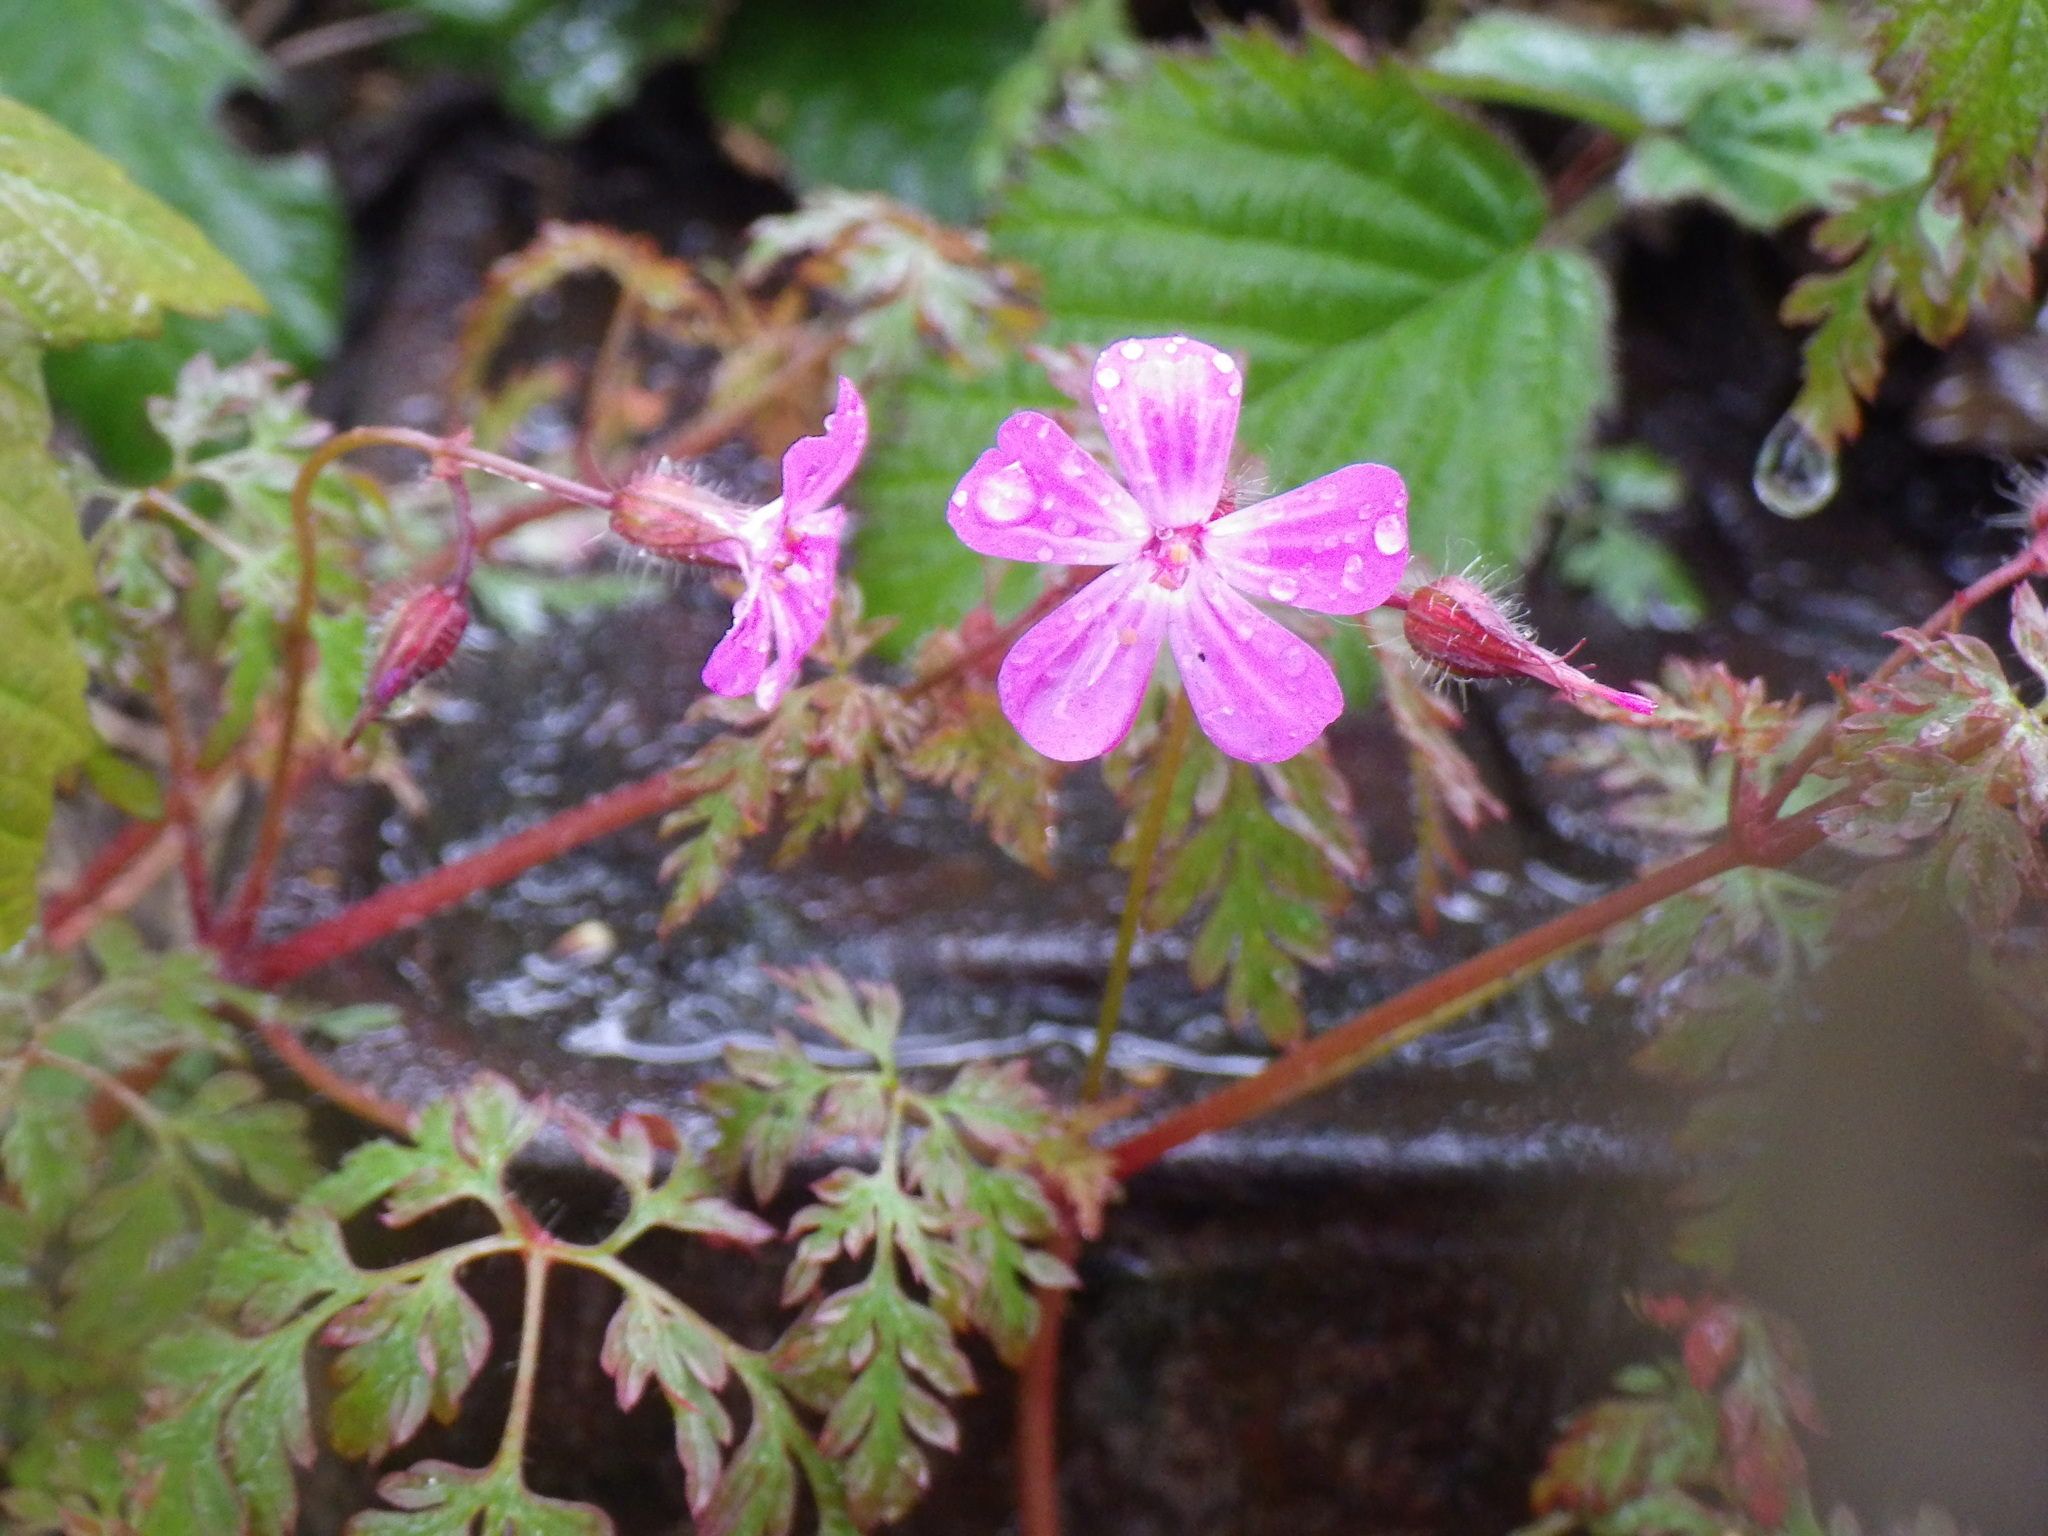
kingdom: Plantae
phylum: Tracheophyta
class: Magnoliopsida
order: Geraniales
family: Geraniaceae
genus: Geranium
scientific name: Geranium robertianum
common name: Herb-robert
